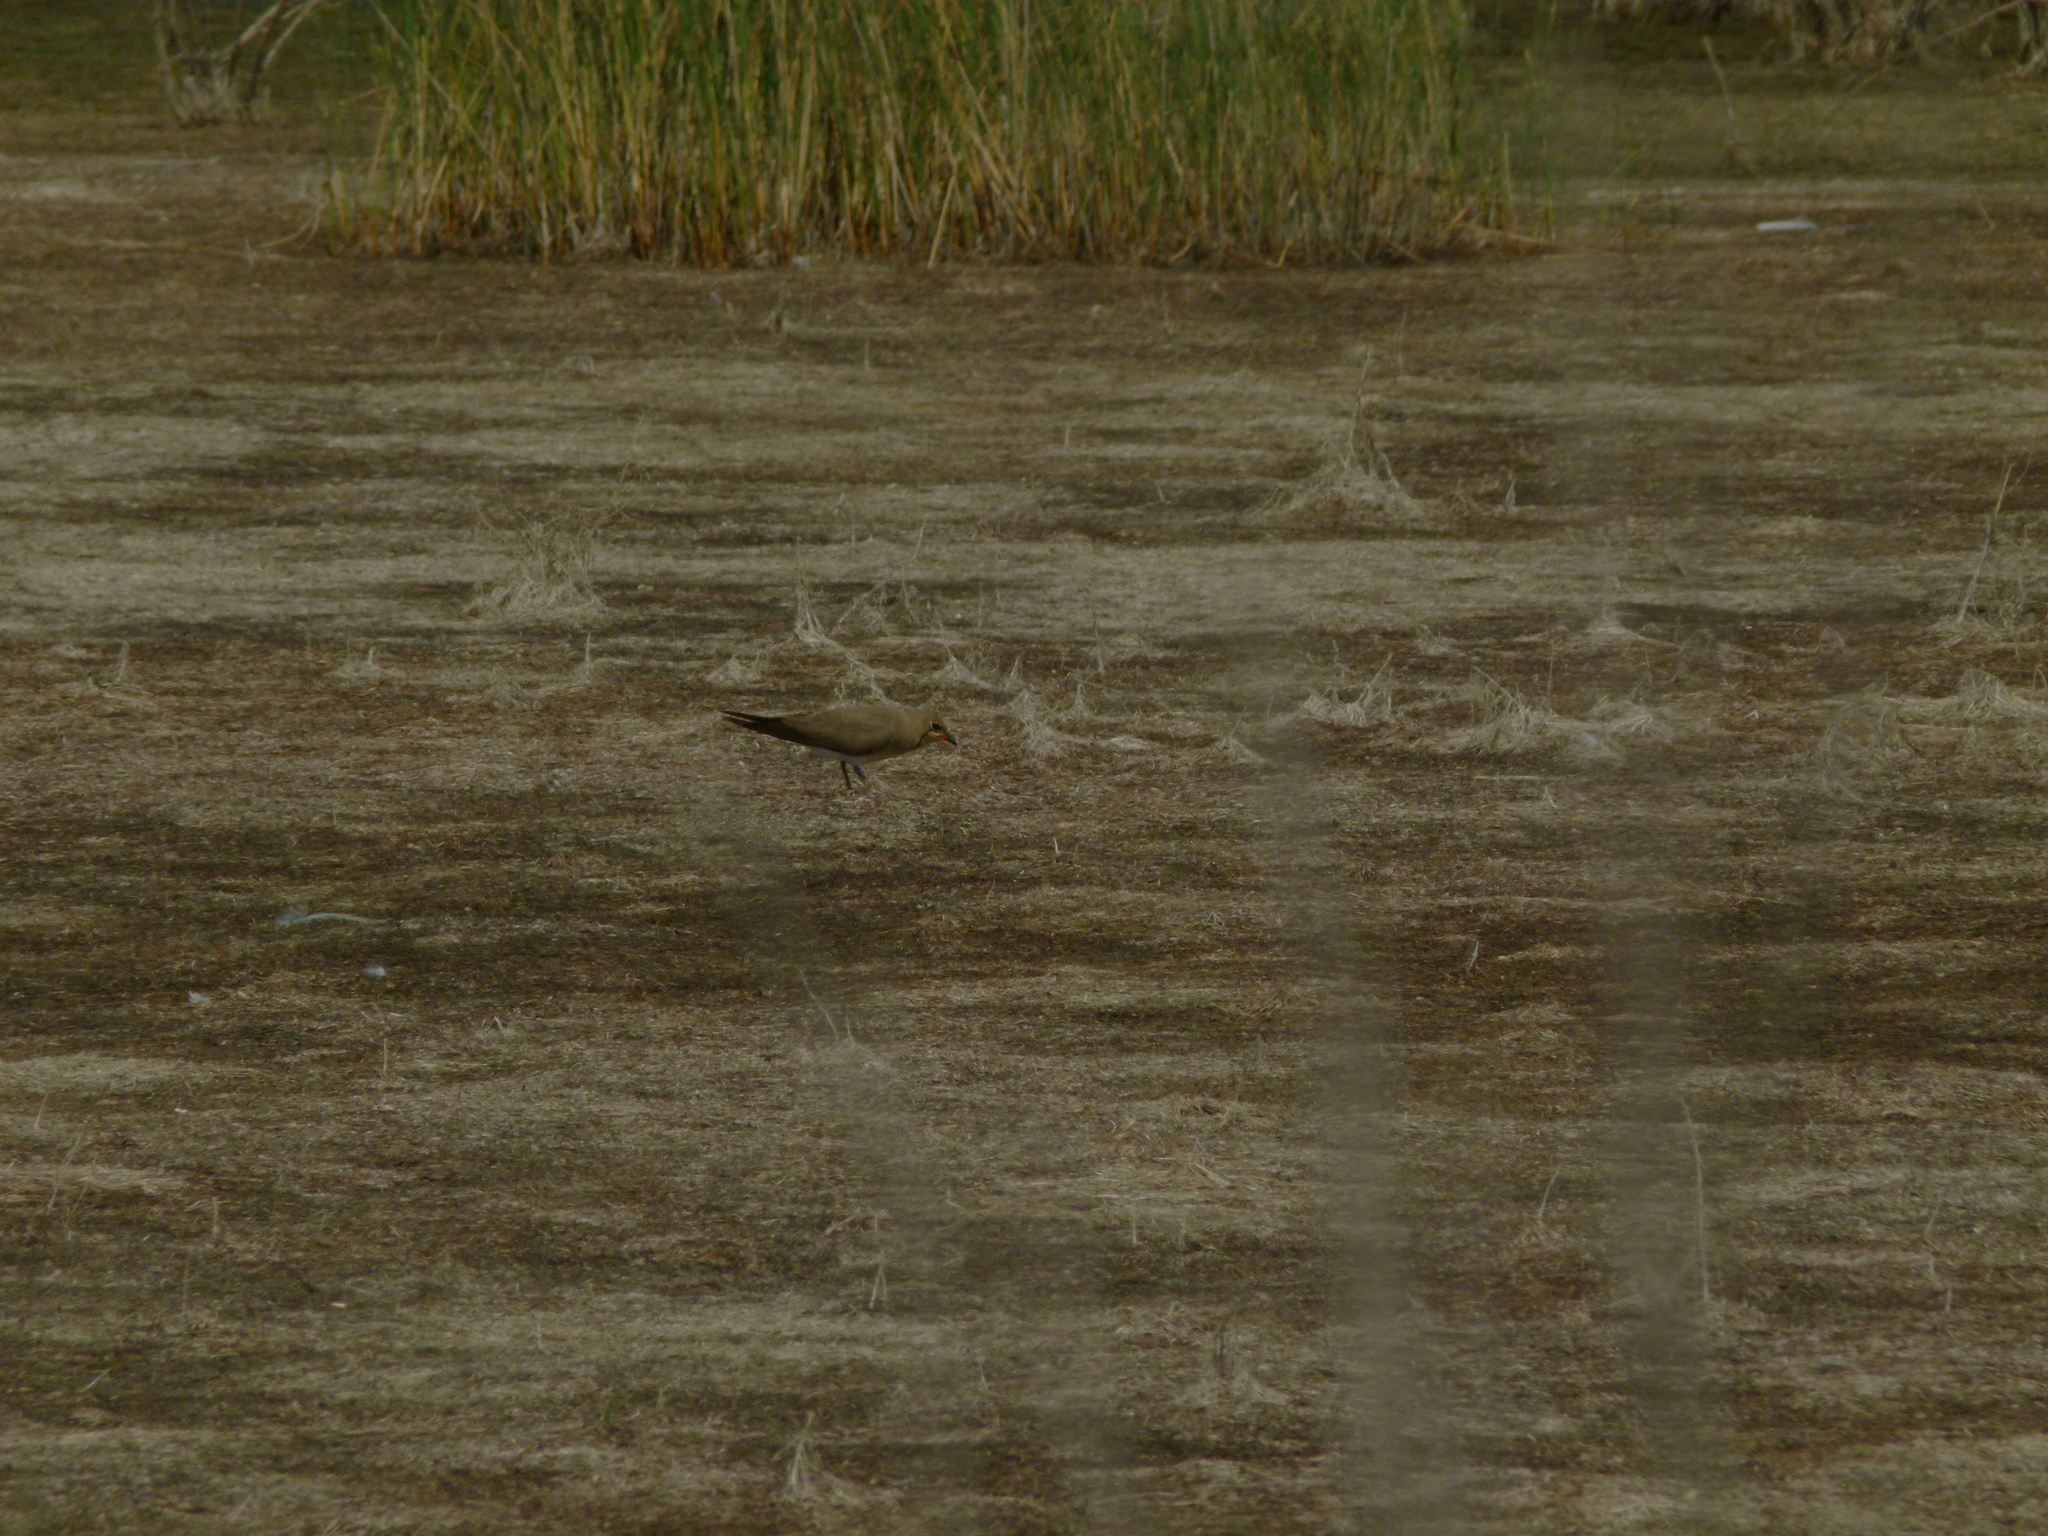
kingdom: Animalia
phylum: Chordata
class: Aves
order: Charadriiformes
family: Glareolidae
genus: Glareola
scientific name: Glareola pratincola
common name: Collared pratincole
